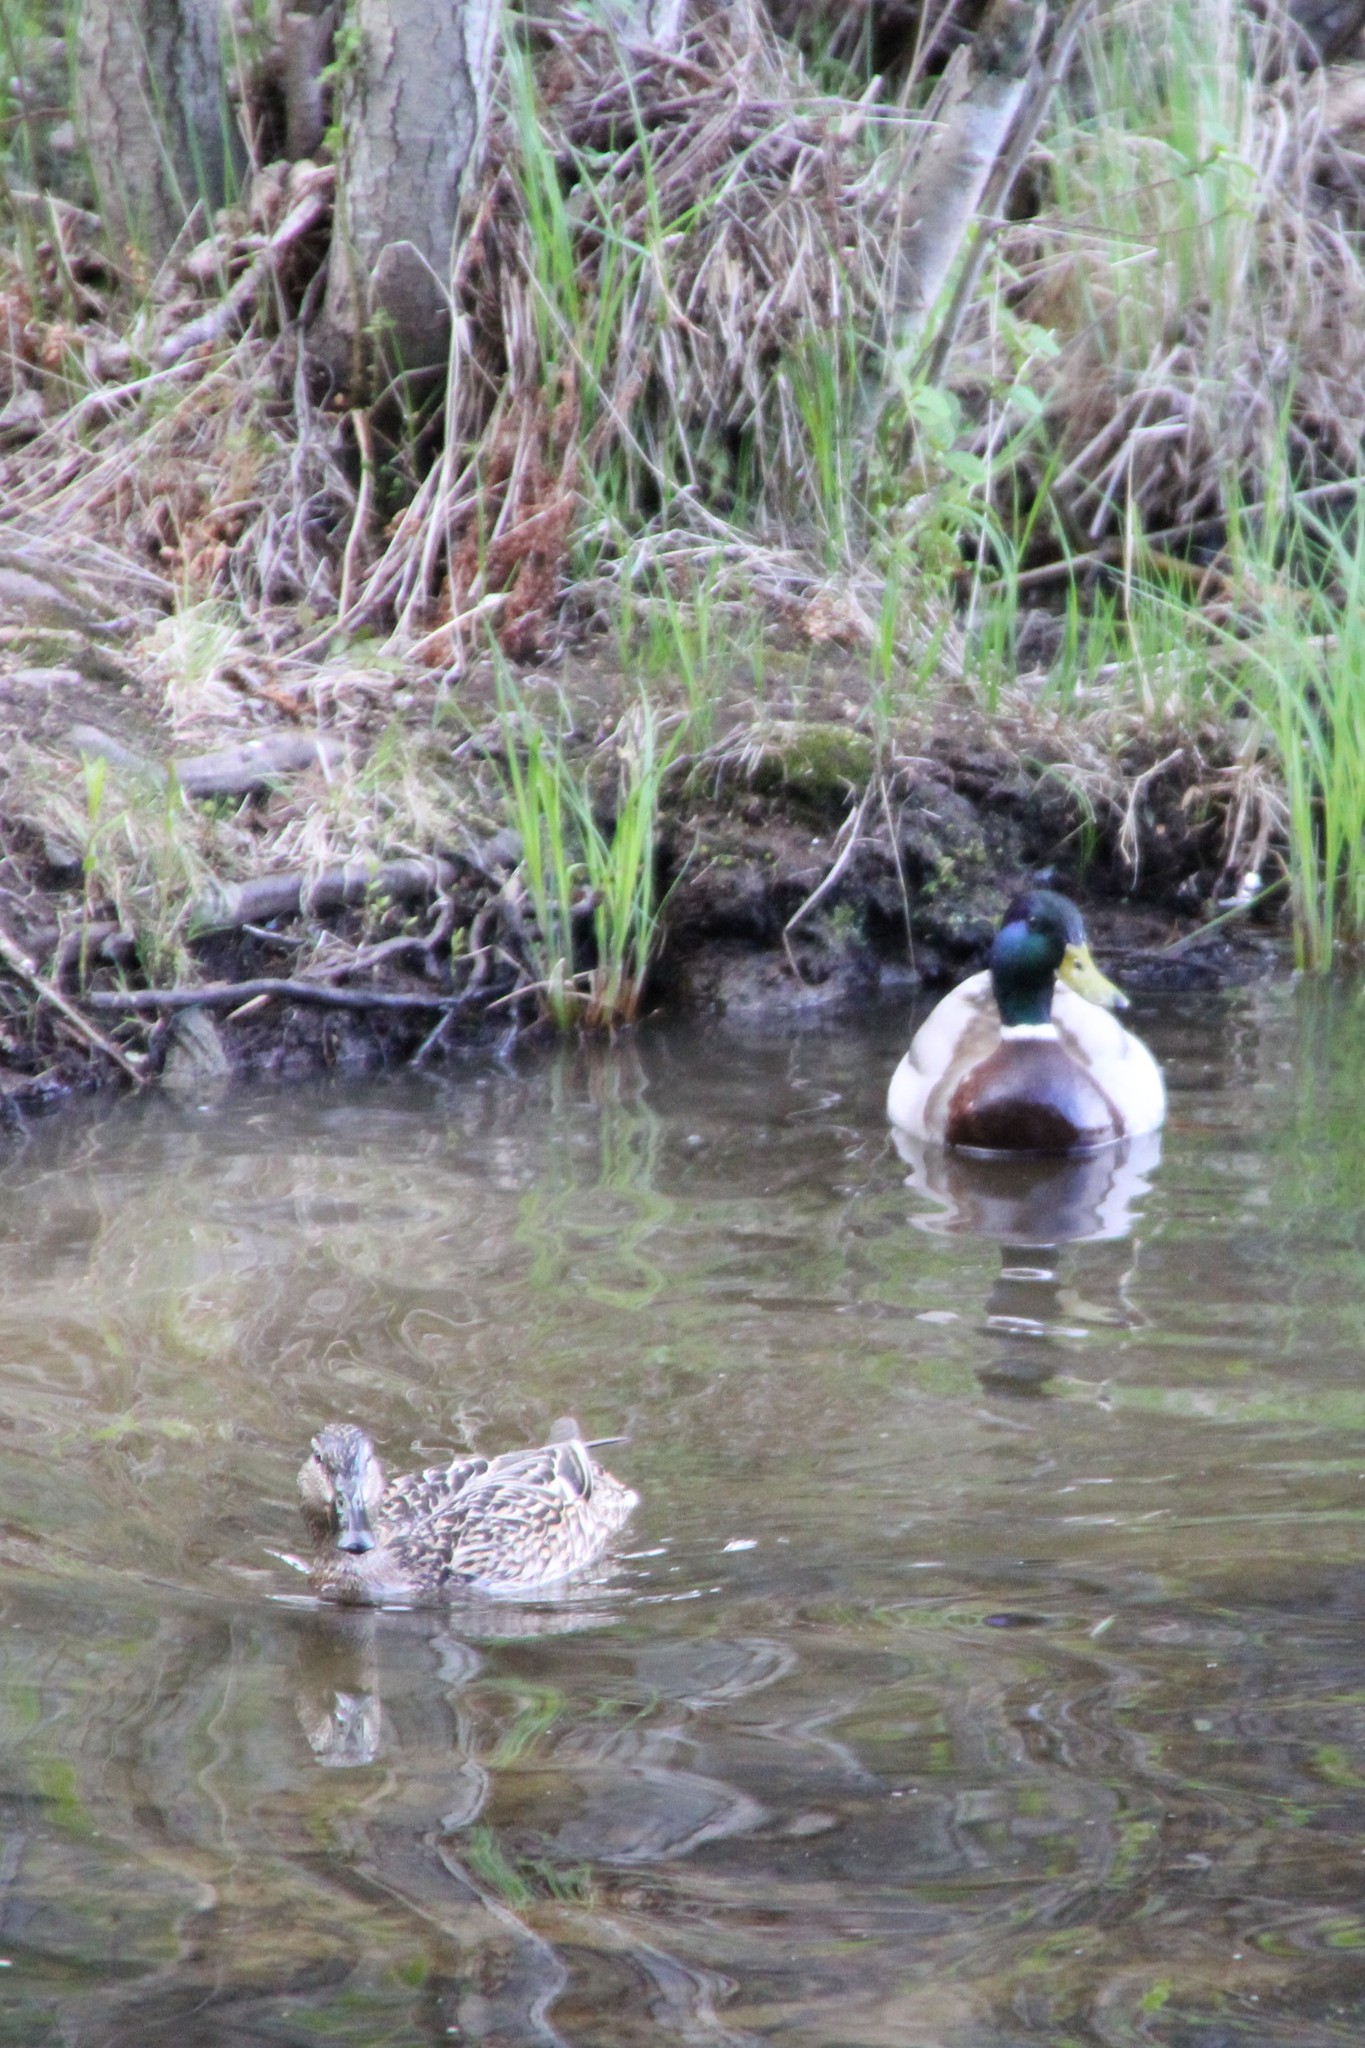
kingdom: Animalia
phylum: Chordata
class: Aves
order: Anseriformes
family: Anatidae
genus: Anas
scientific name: Anas platyrhynchos
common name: Mallard
